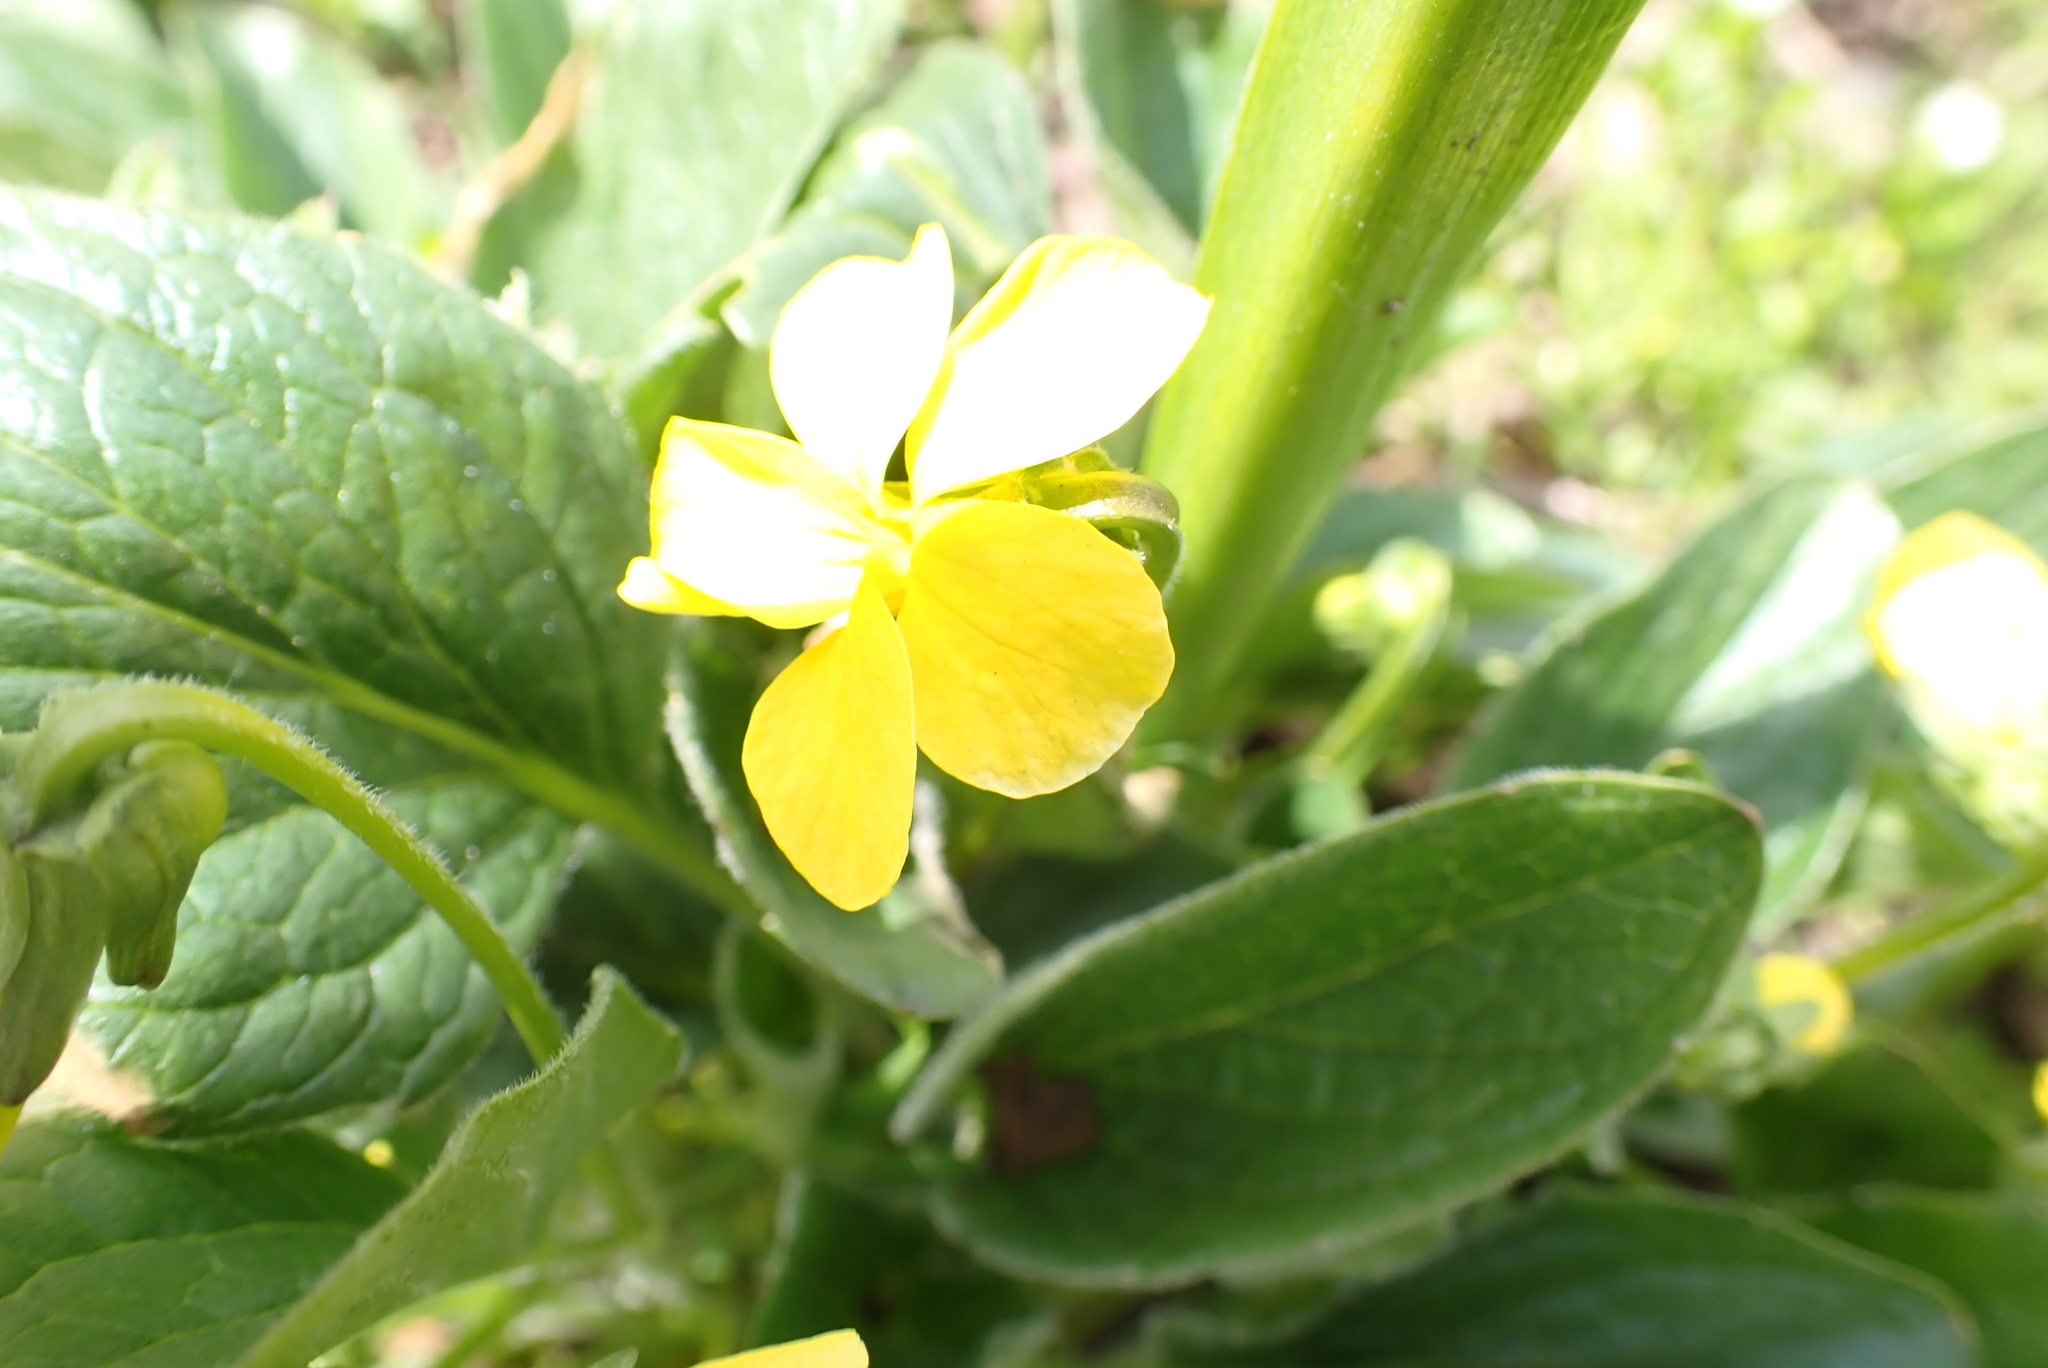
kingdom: Plantae
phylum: Tracheophyta
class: Magnoliopsida
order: Malpighiales
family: Violaceae
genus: Viola
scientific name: Viola praemorsa
